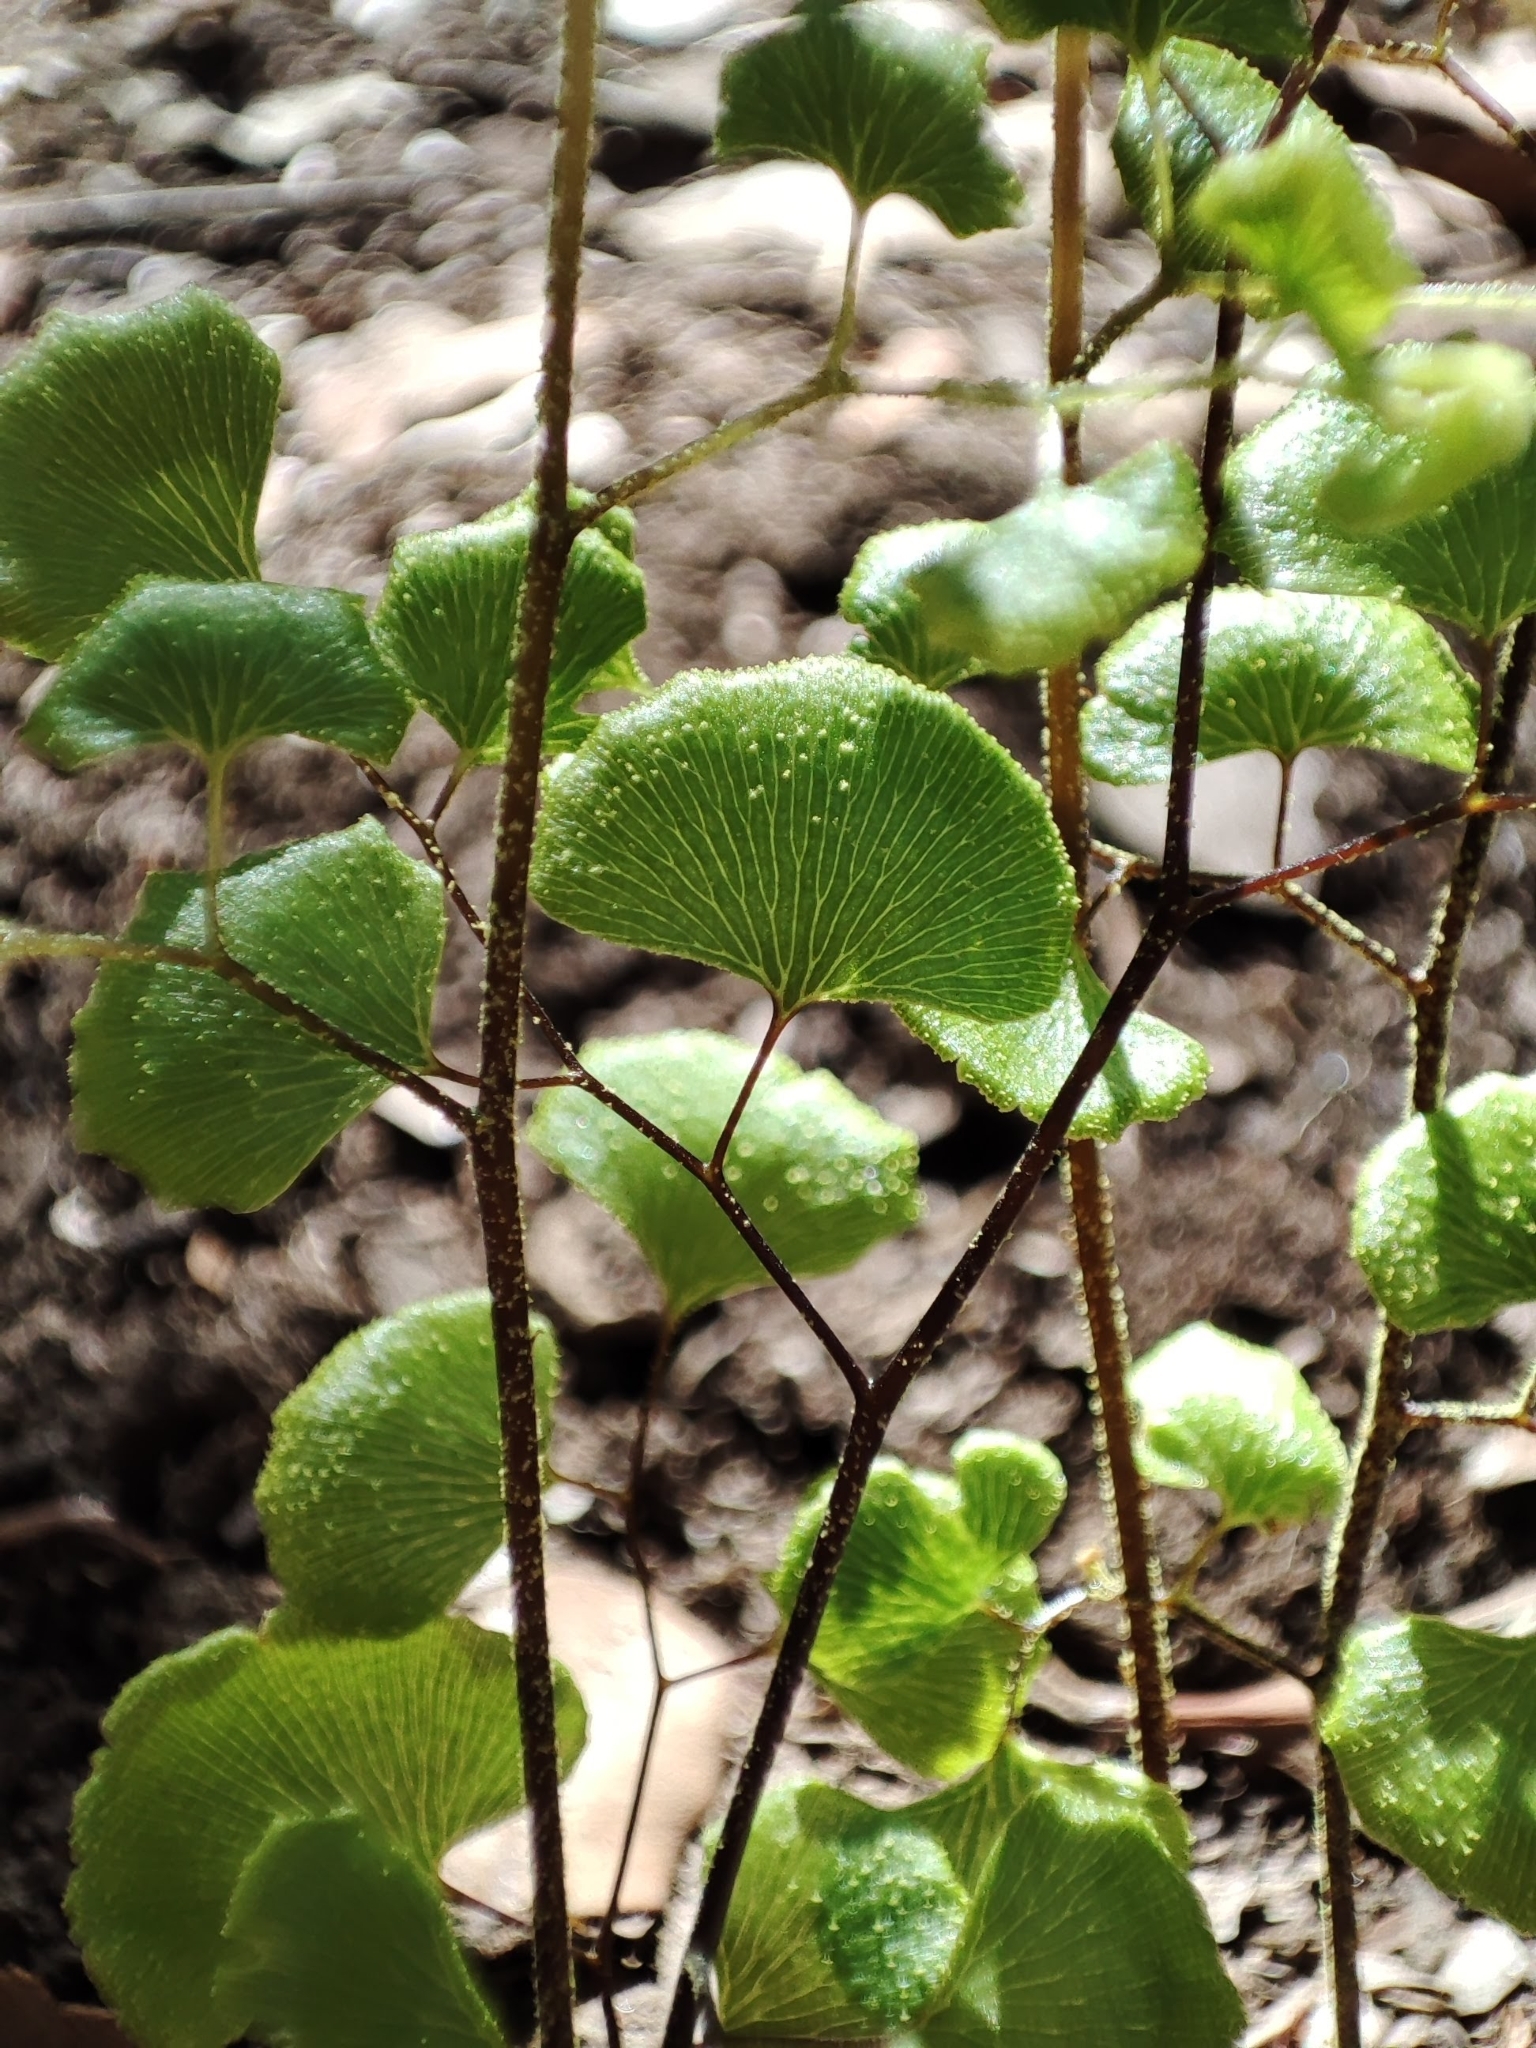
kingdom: Plantae
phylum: Tracheophyta
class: Polypodiopsida
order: Polypodiales
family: Pteridaceae
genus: Adiantum
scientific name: Adiantum sulphureum
